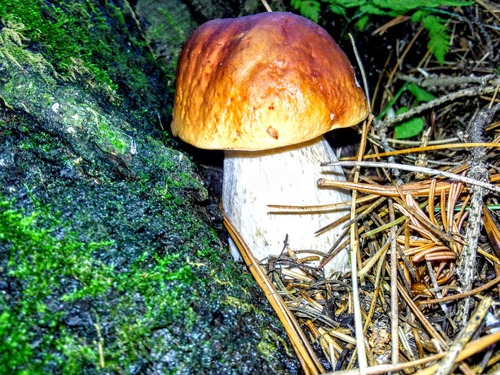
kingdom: Fungi
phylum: Basidiomycota
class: Agaricomycetes
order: Boletales
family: Boletaceae
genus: Boletus
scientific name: Boletus edulis
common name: Cep
